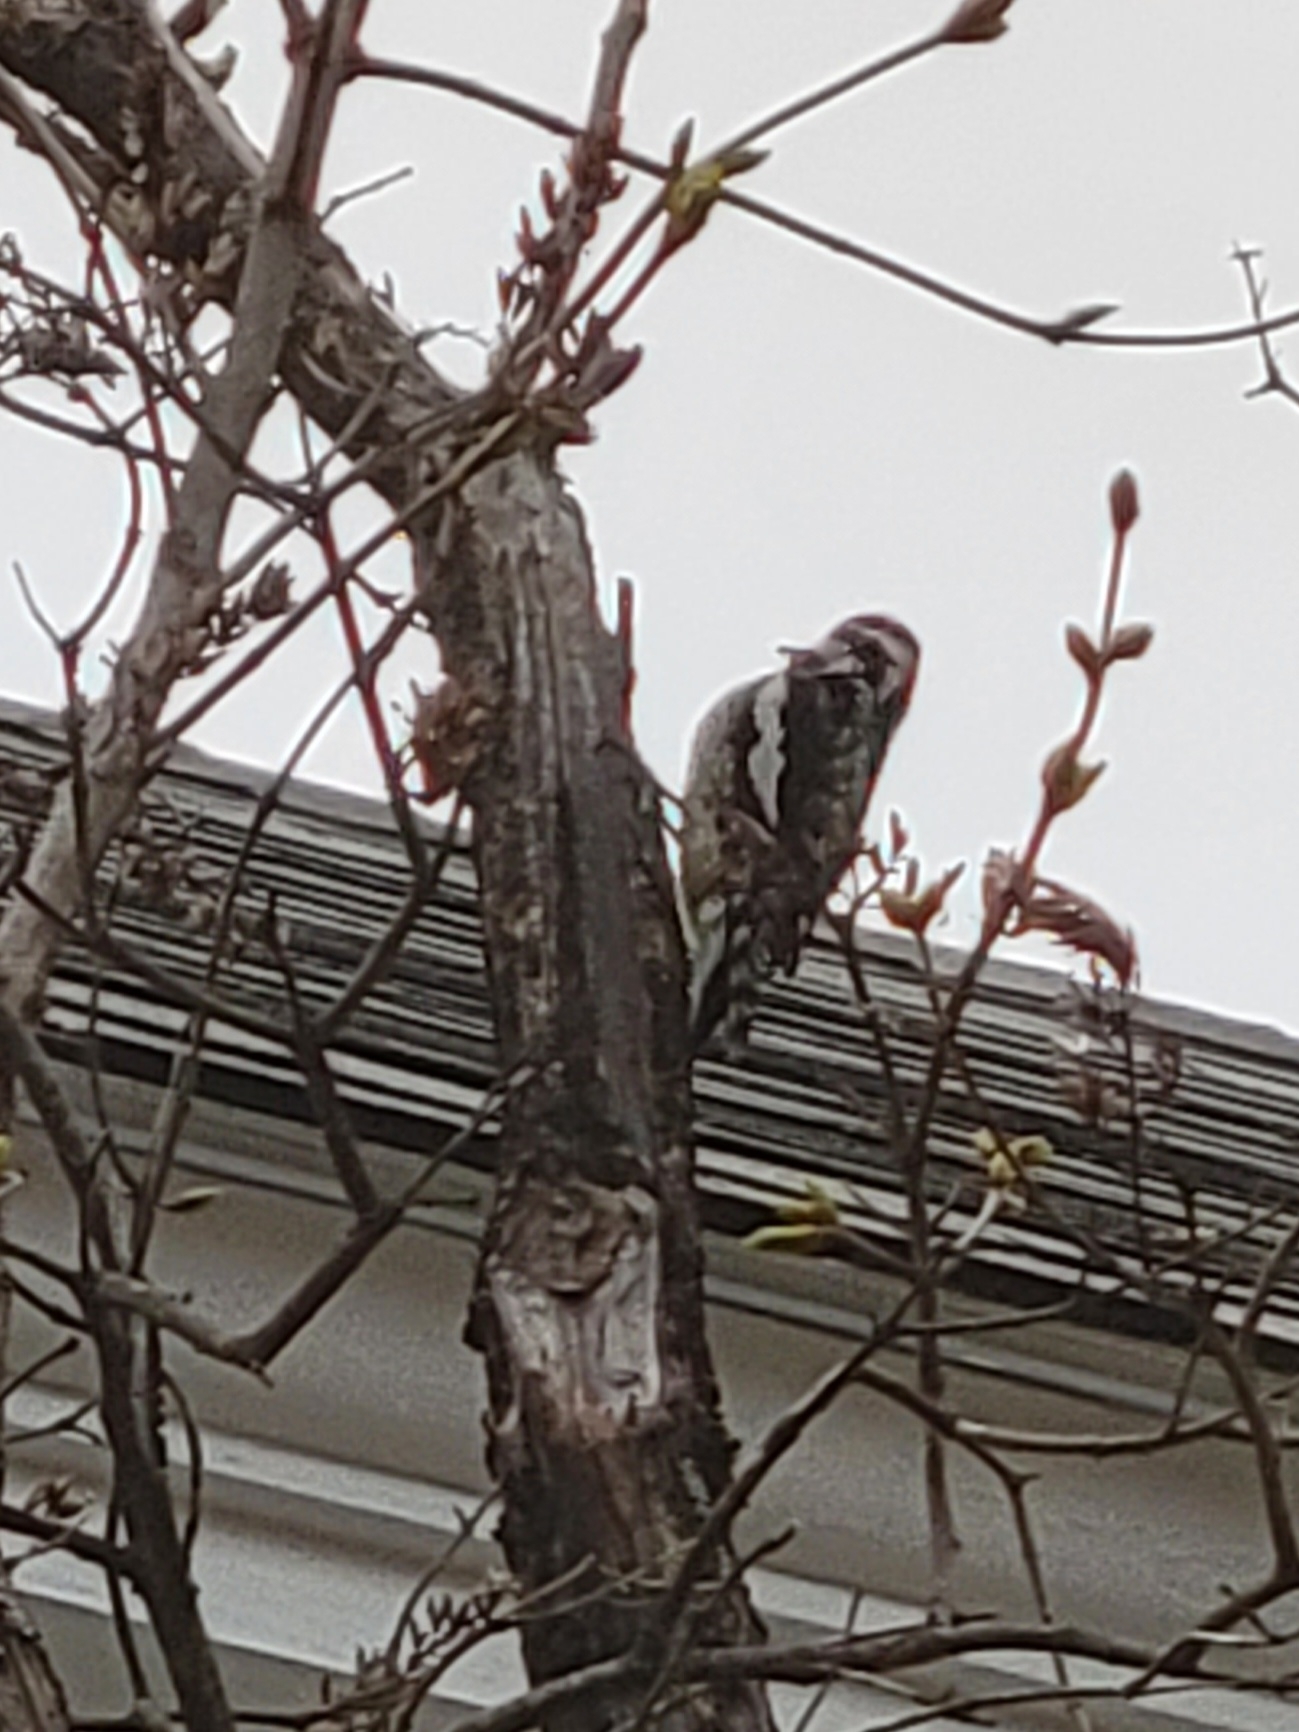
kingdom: Animalia
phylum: Chordata
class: Aves
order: Piciformes
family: Picidae
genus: Sphyrapicus
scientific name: Sphyrapicus varius
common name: Yellow-bellied sapsucker
